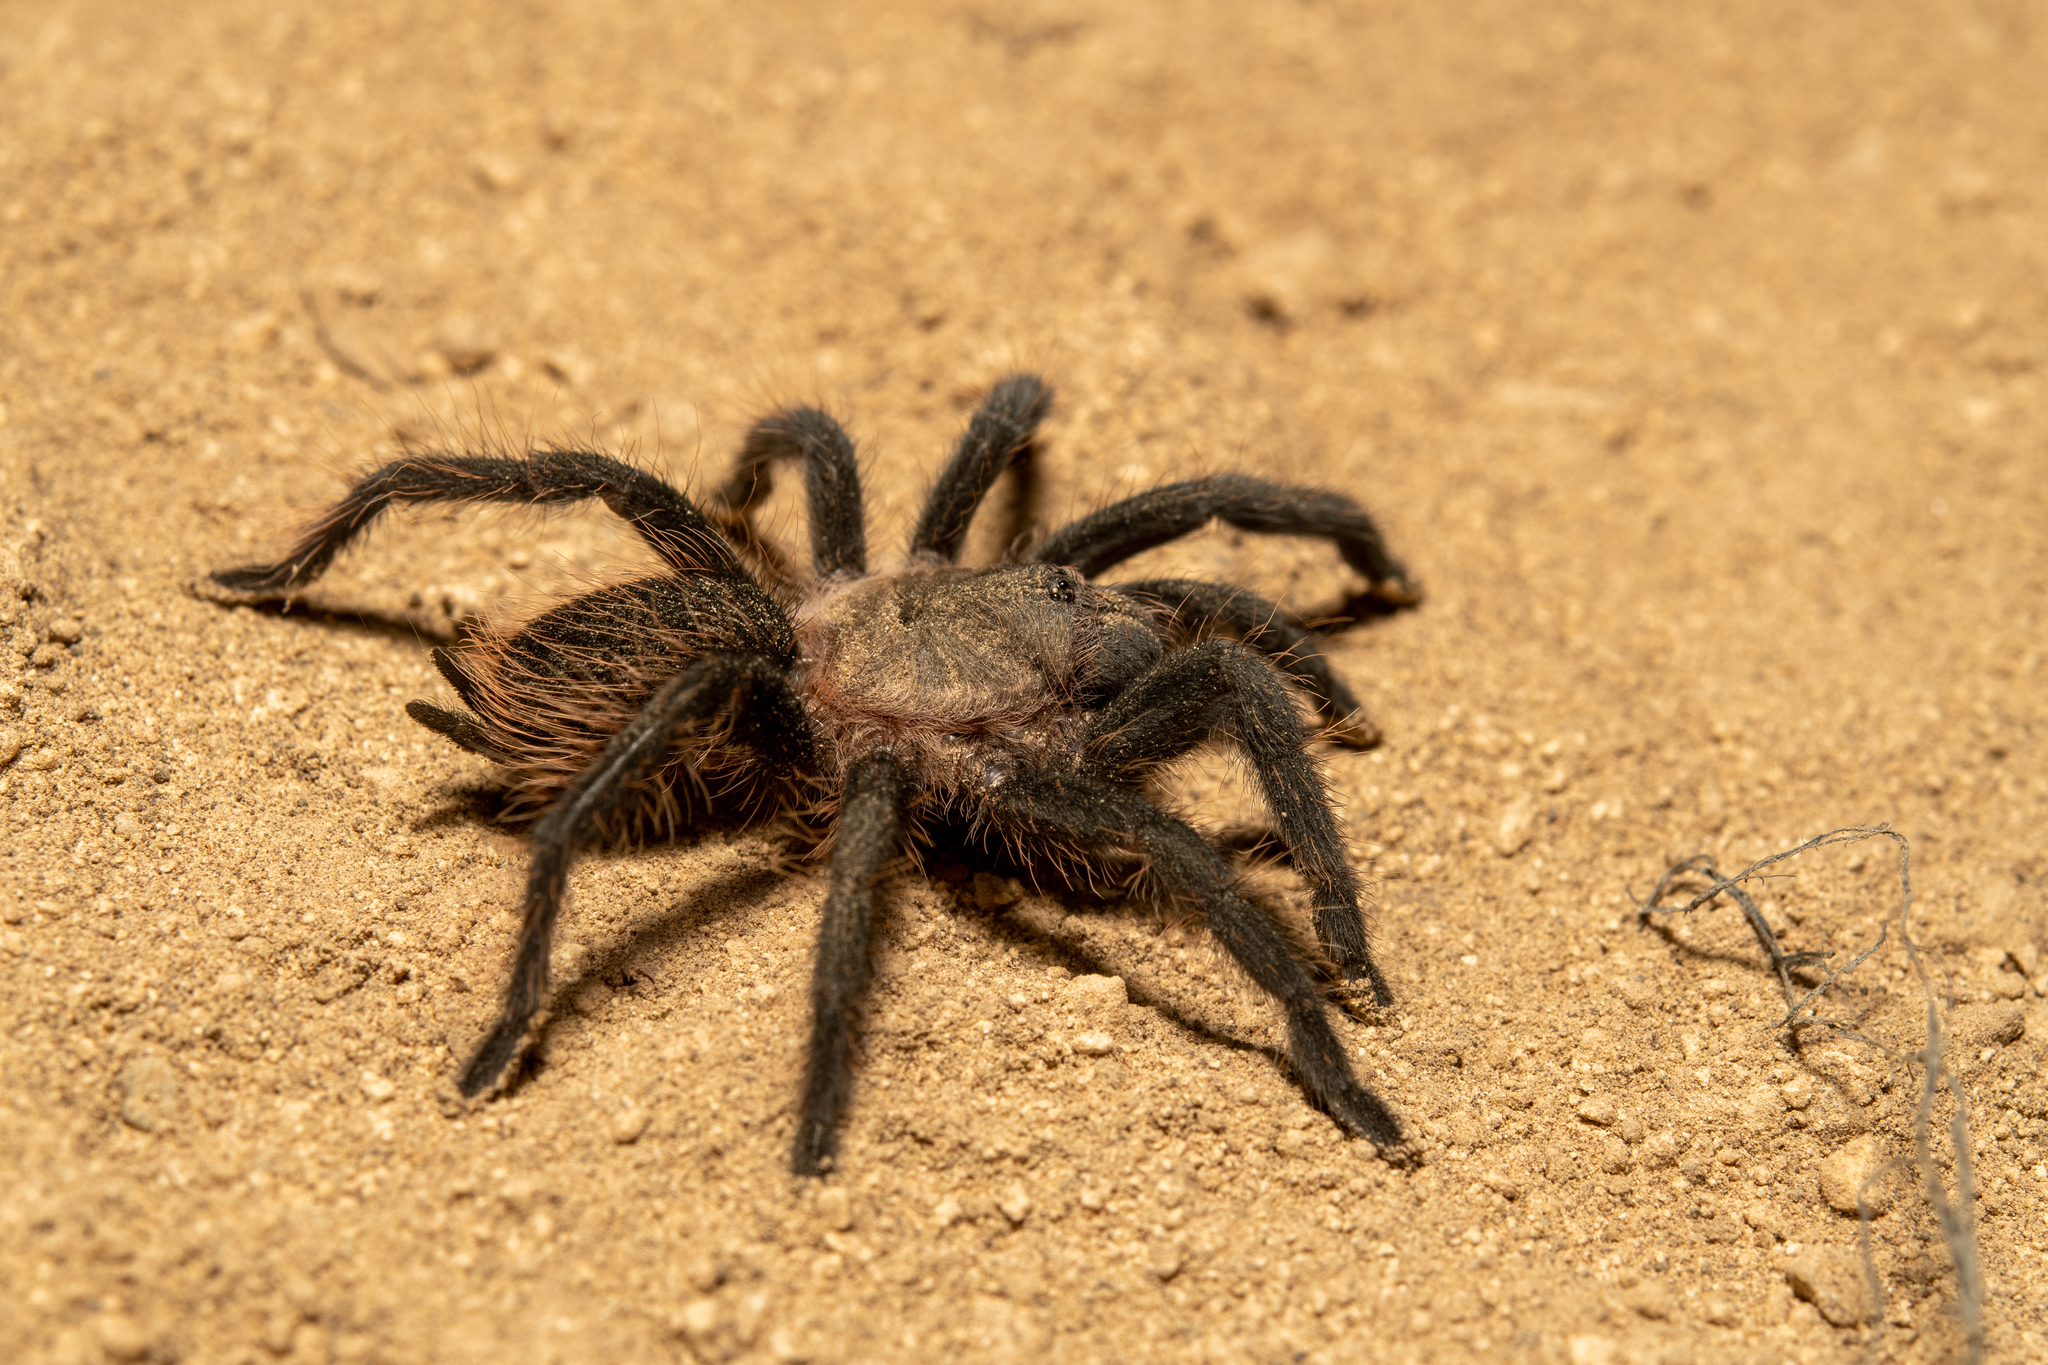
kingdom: Animalia
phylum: Arthropoda
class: Arachnida
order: Araneae
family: Theraphosidae
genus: Tliltocatl
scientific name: Tliltocatl albopilosus
